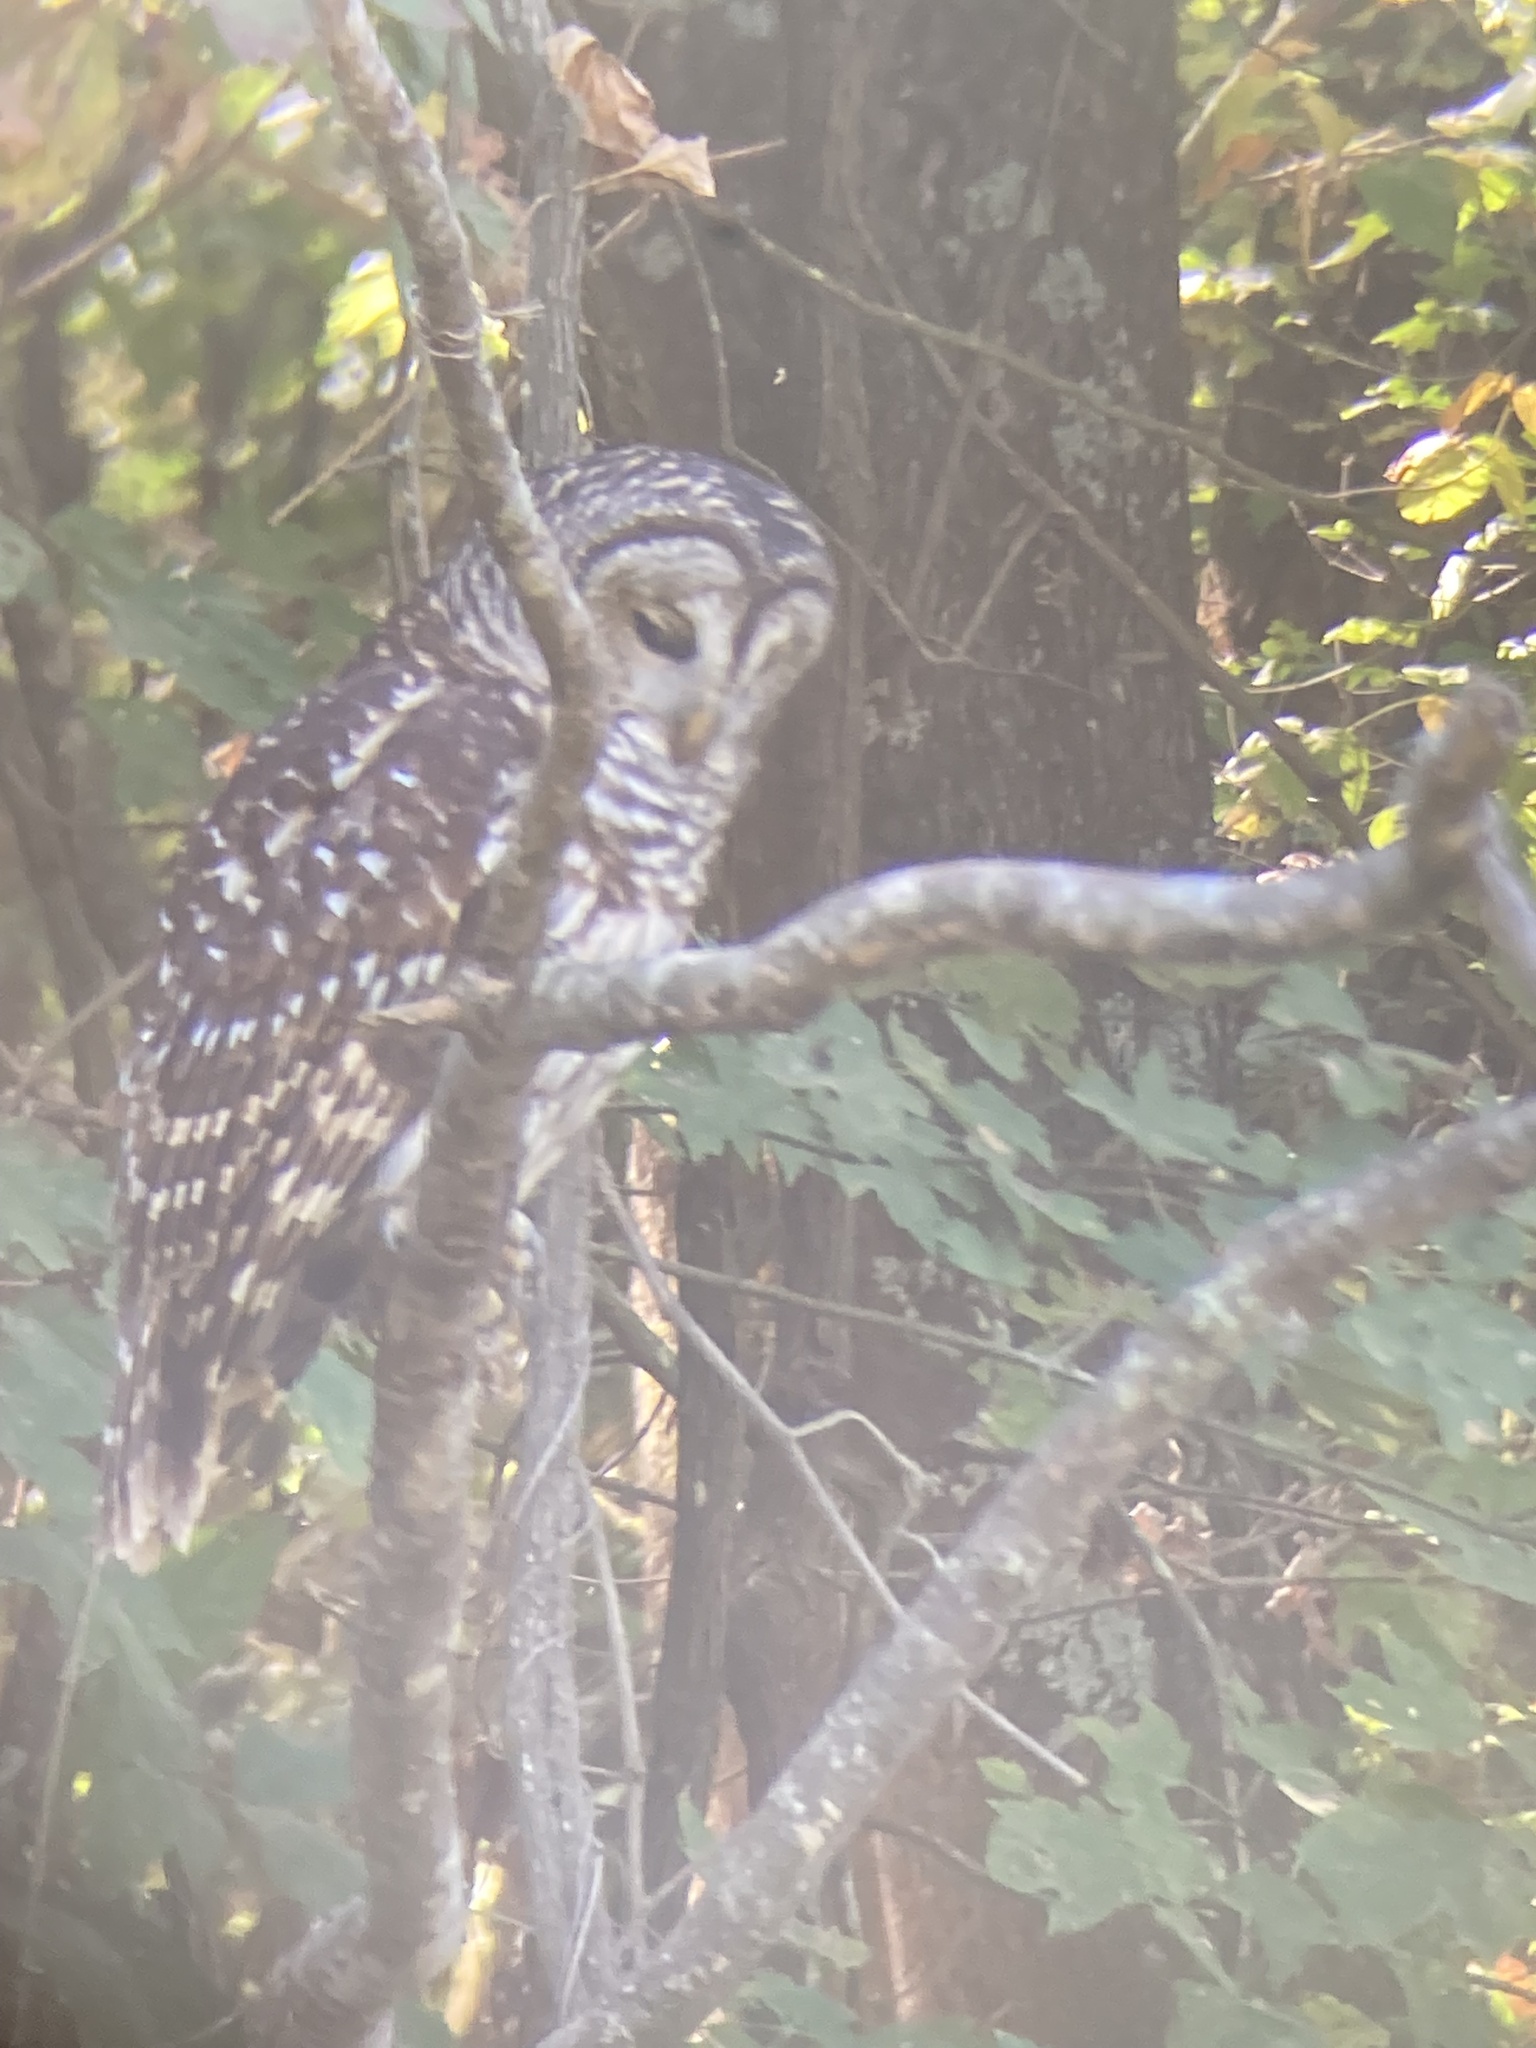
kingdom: Animalia
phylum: Chordata
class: Aves
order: Strigiformes
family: Strigidae
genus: Strix
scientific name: Strix varia
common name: Barred owl
